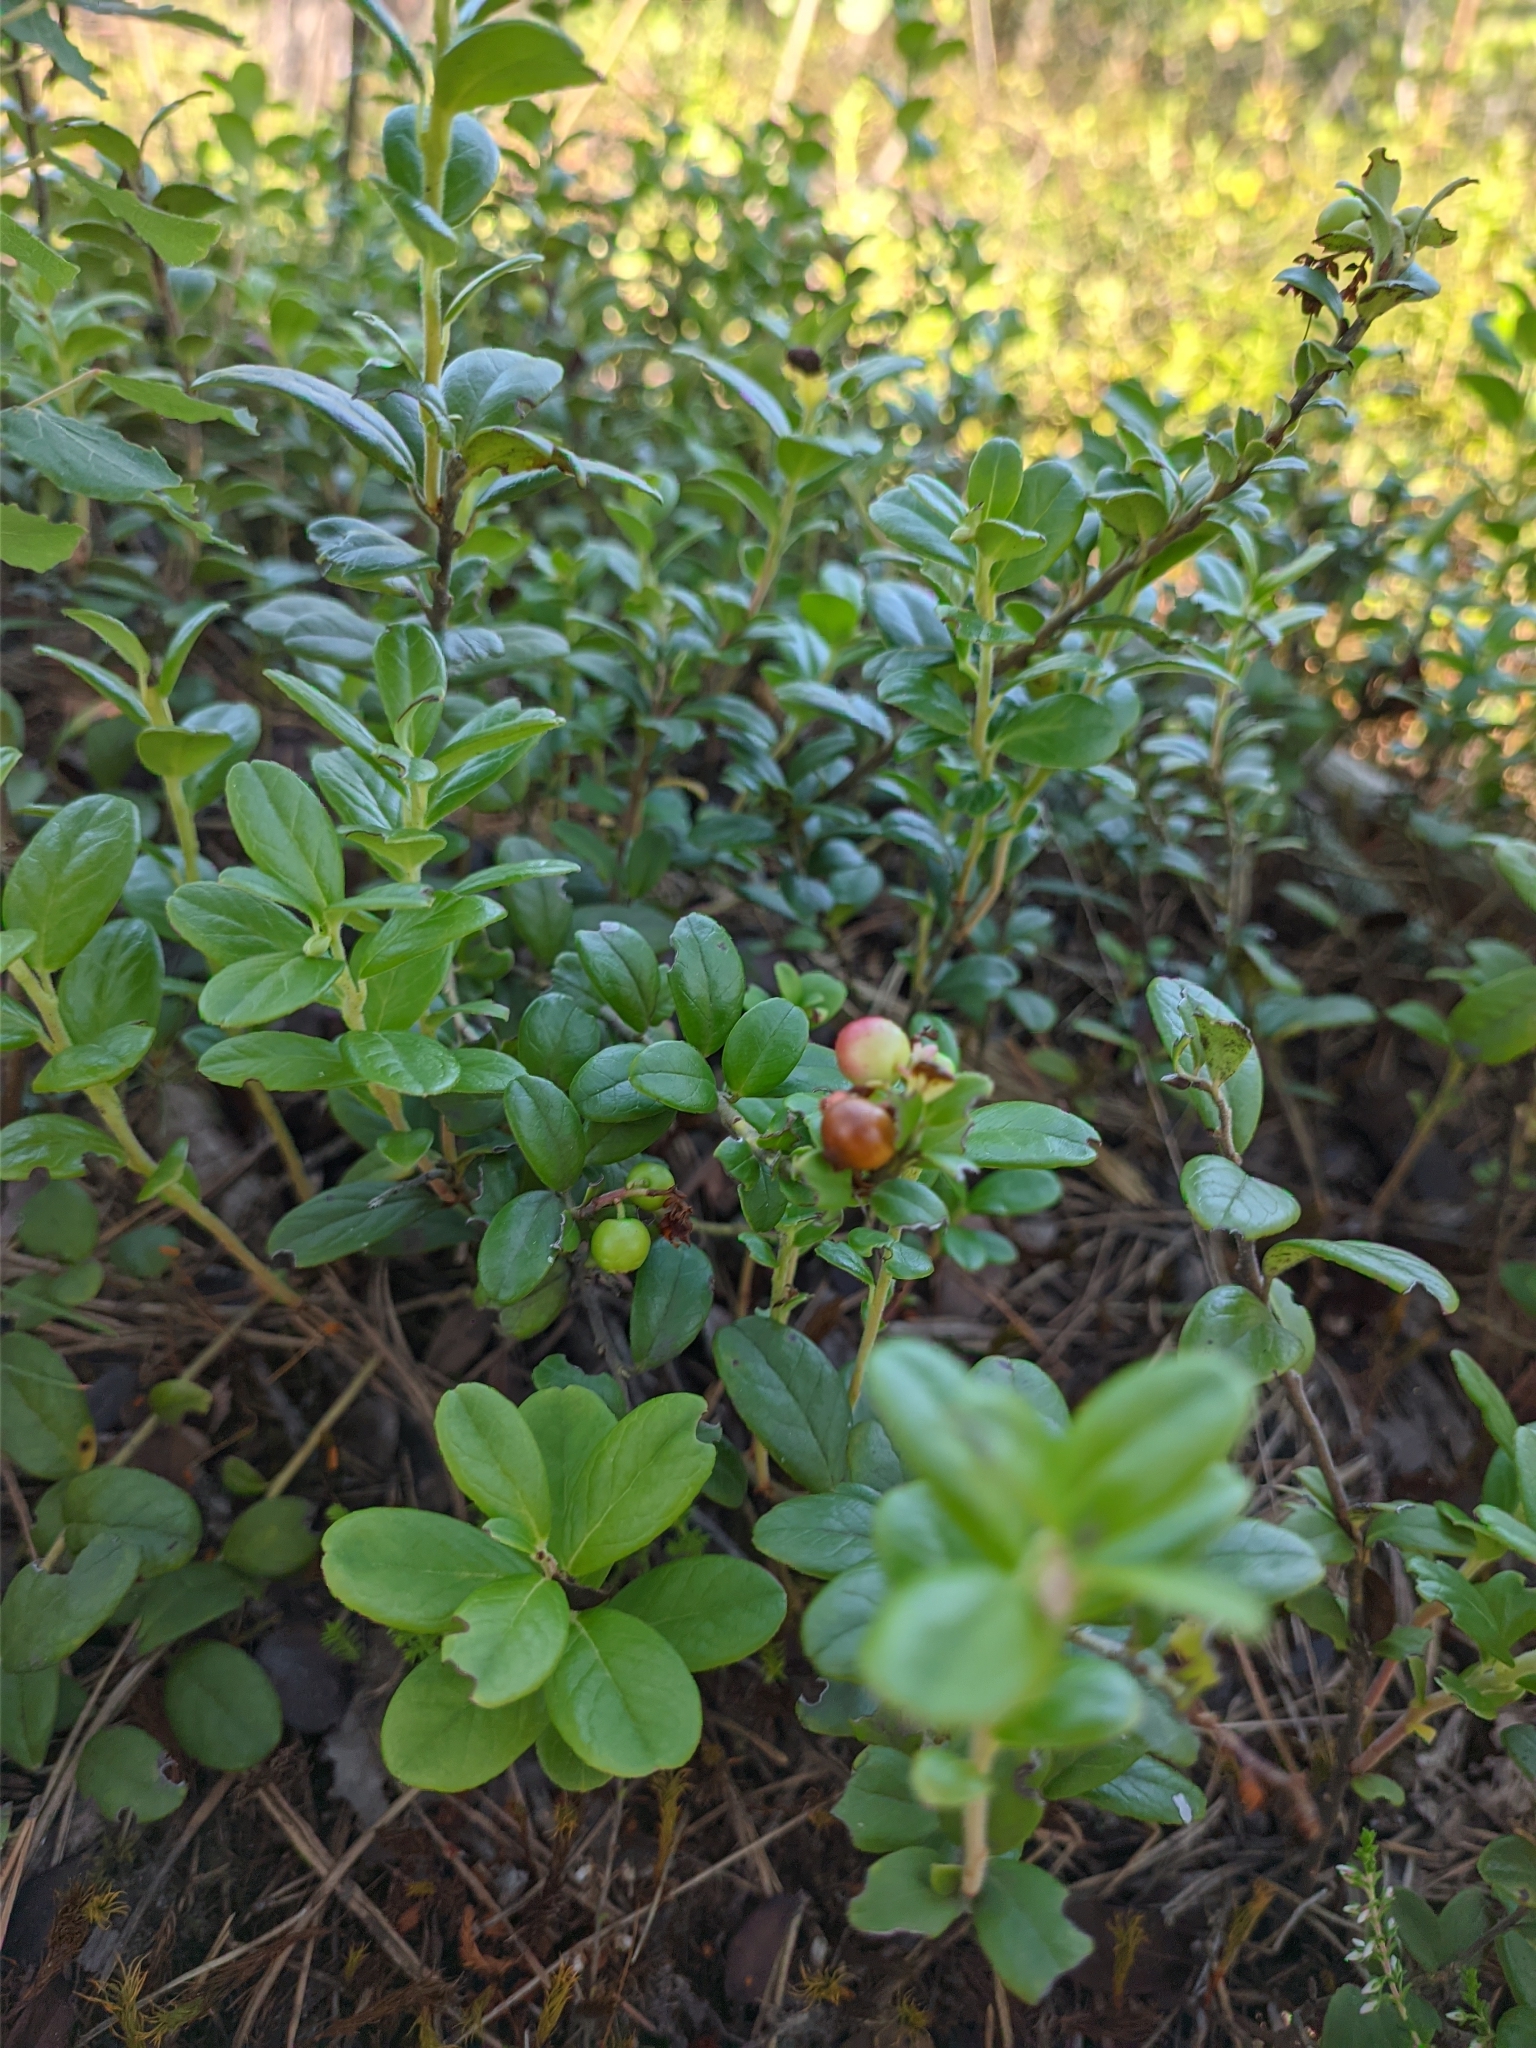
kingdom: Plantae
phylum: Tracheophyta
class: Magnoliopsida
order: Ericales
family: Ericaceae
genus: Vaccinium
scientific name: Vaccinium vitis-idaea
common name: Cowberry
